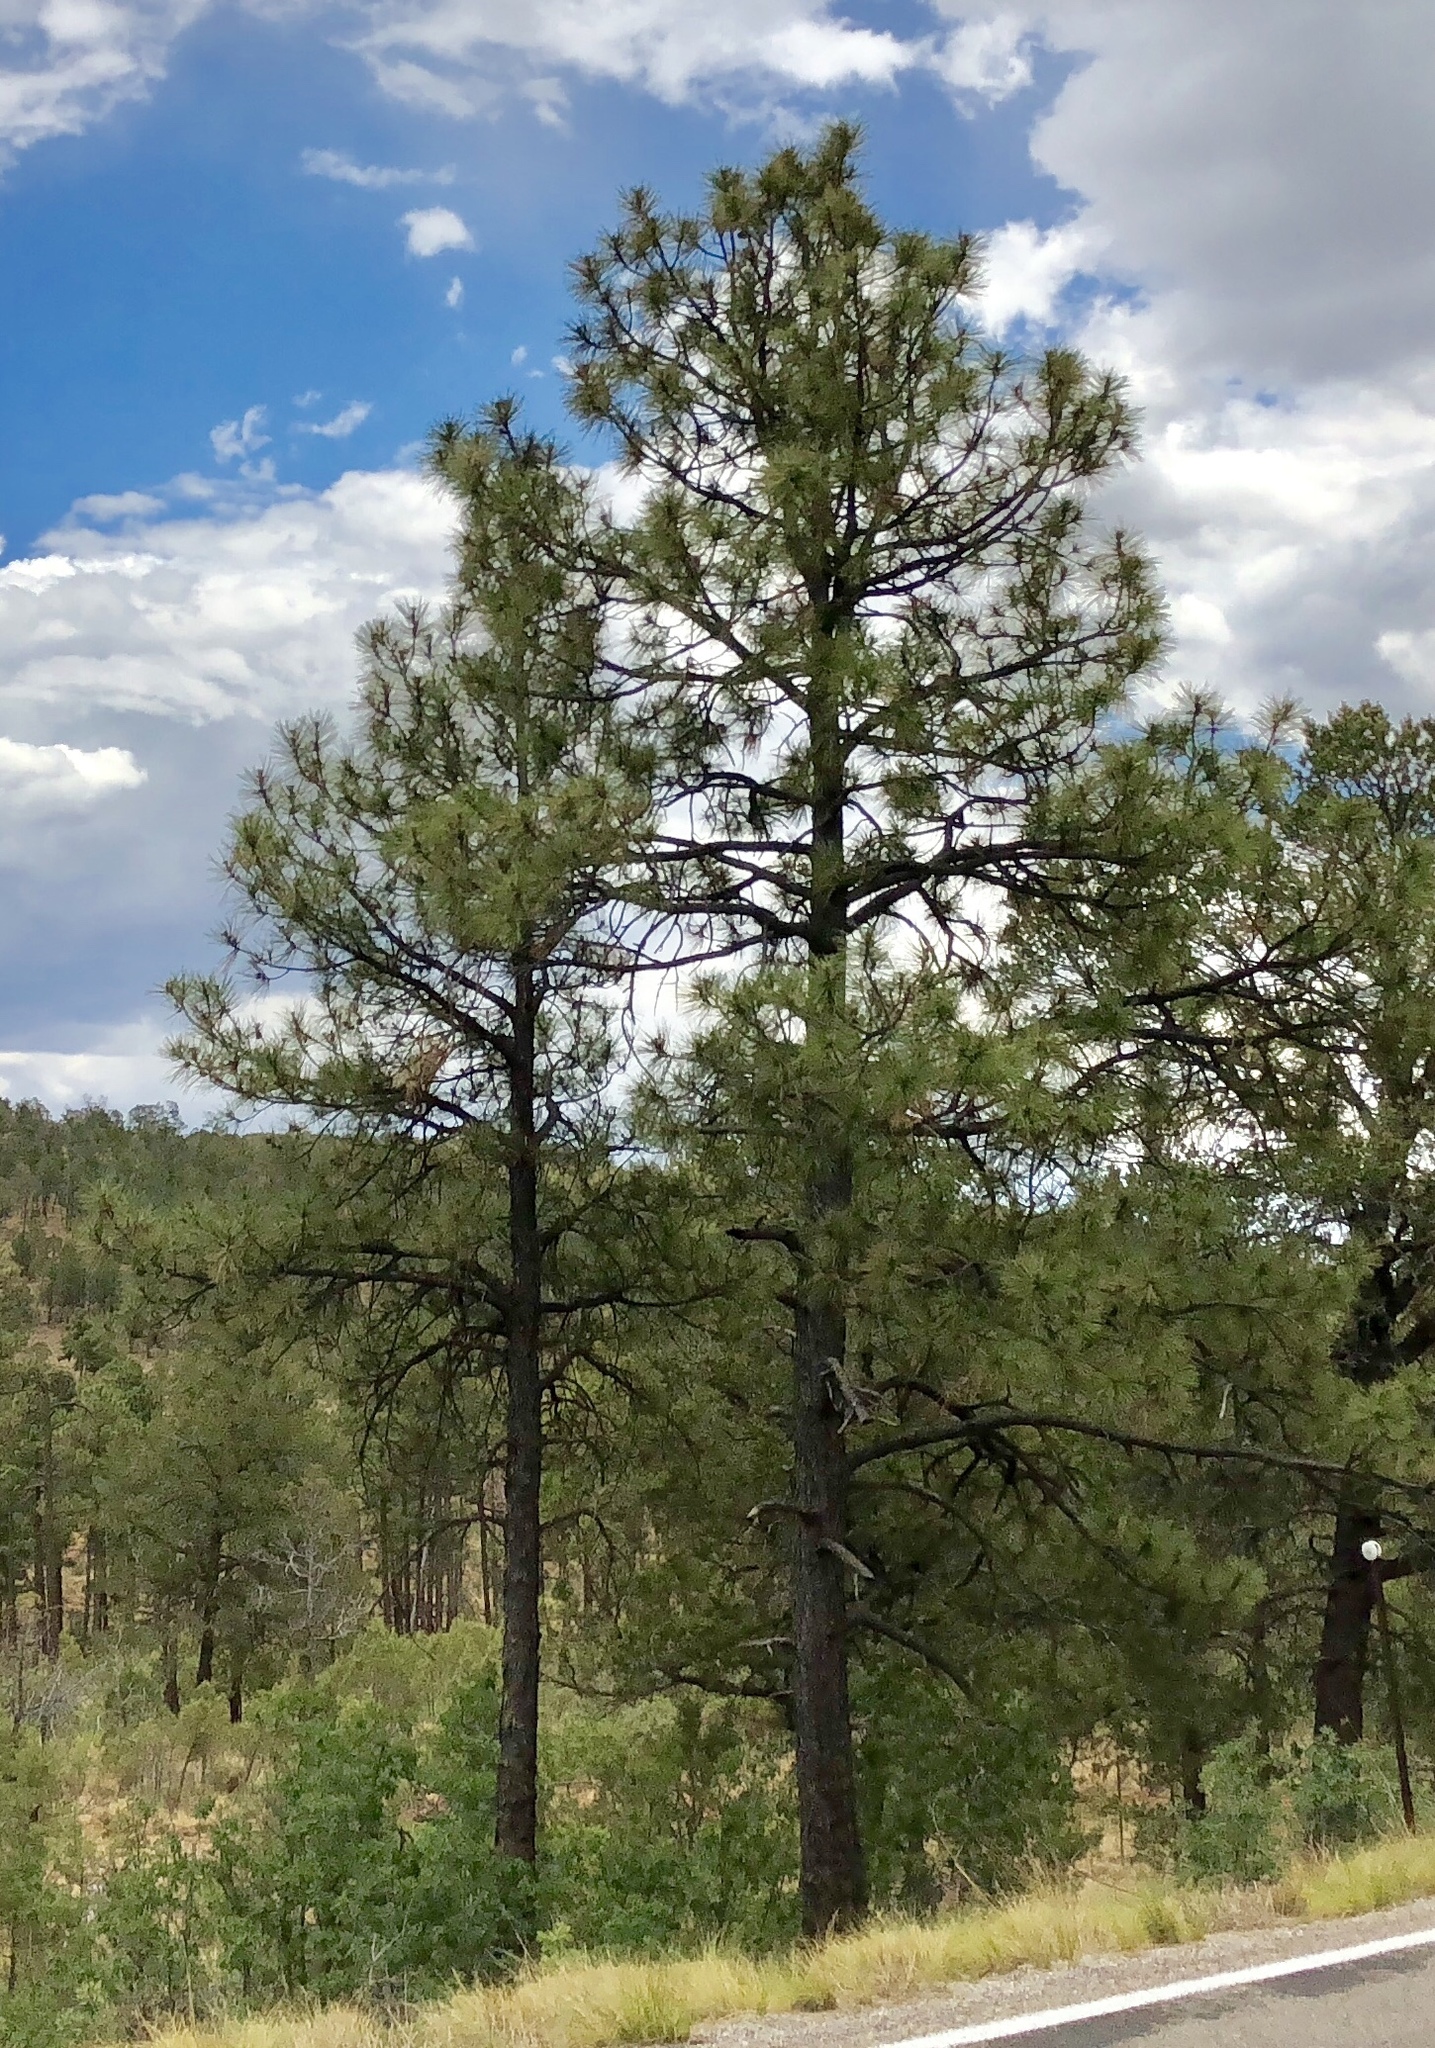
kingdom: Plantae
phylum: Tracheophyta
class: Pinopsida
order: Pinales
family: Pinaceae
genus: Pinus
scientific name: Pinus ponderosa
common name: Western yellow-pine
